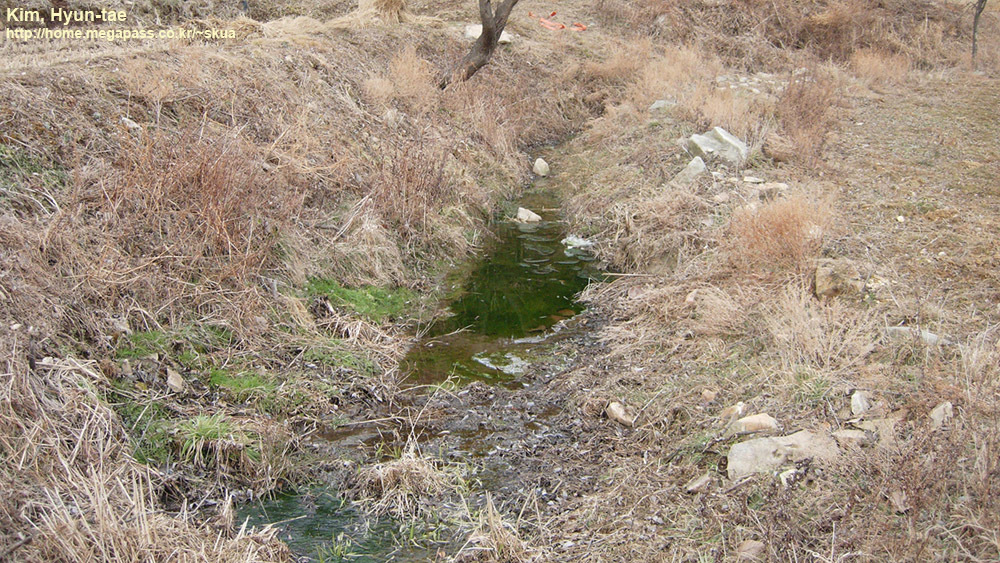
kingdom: Animalia
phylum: Chordata
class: Amphibia
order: Anura
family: Ranidae
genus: Rana
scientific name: Rana uenoi
